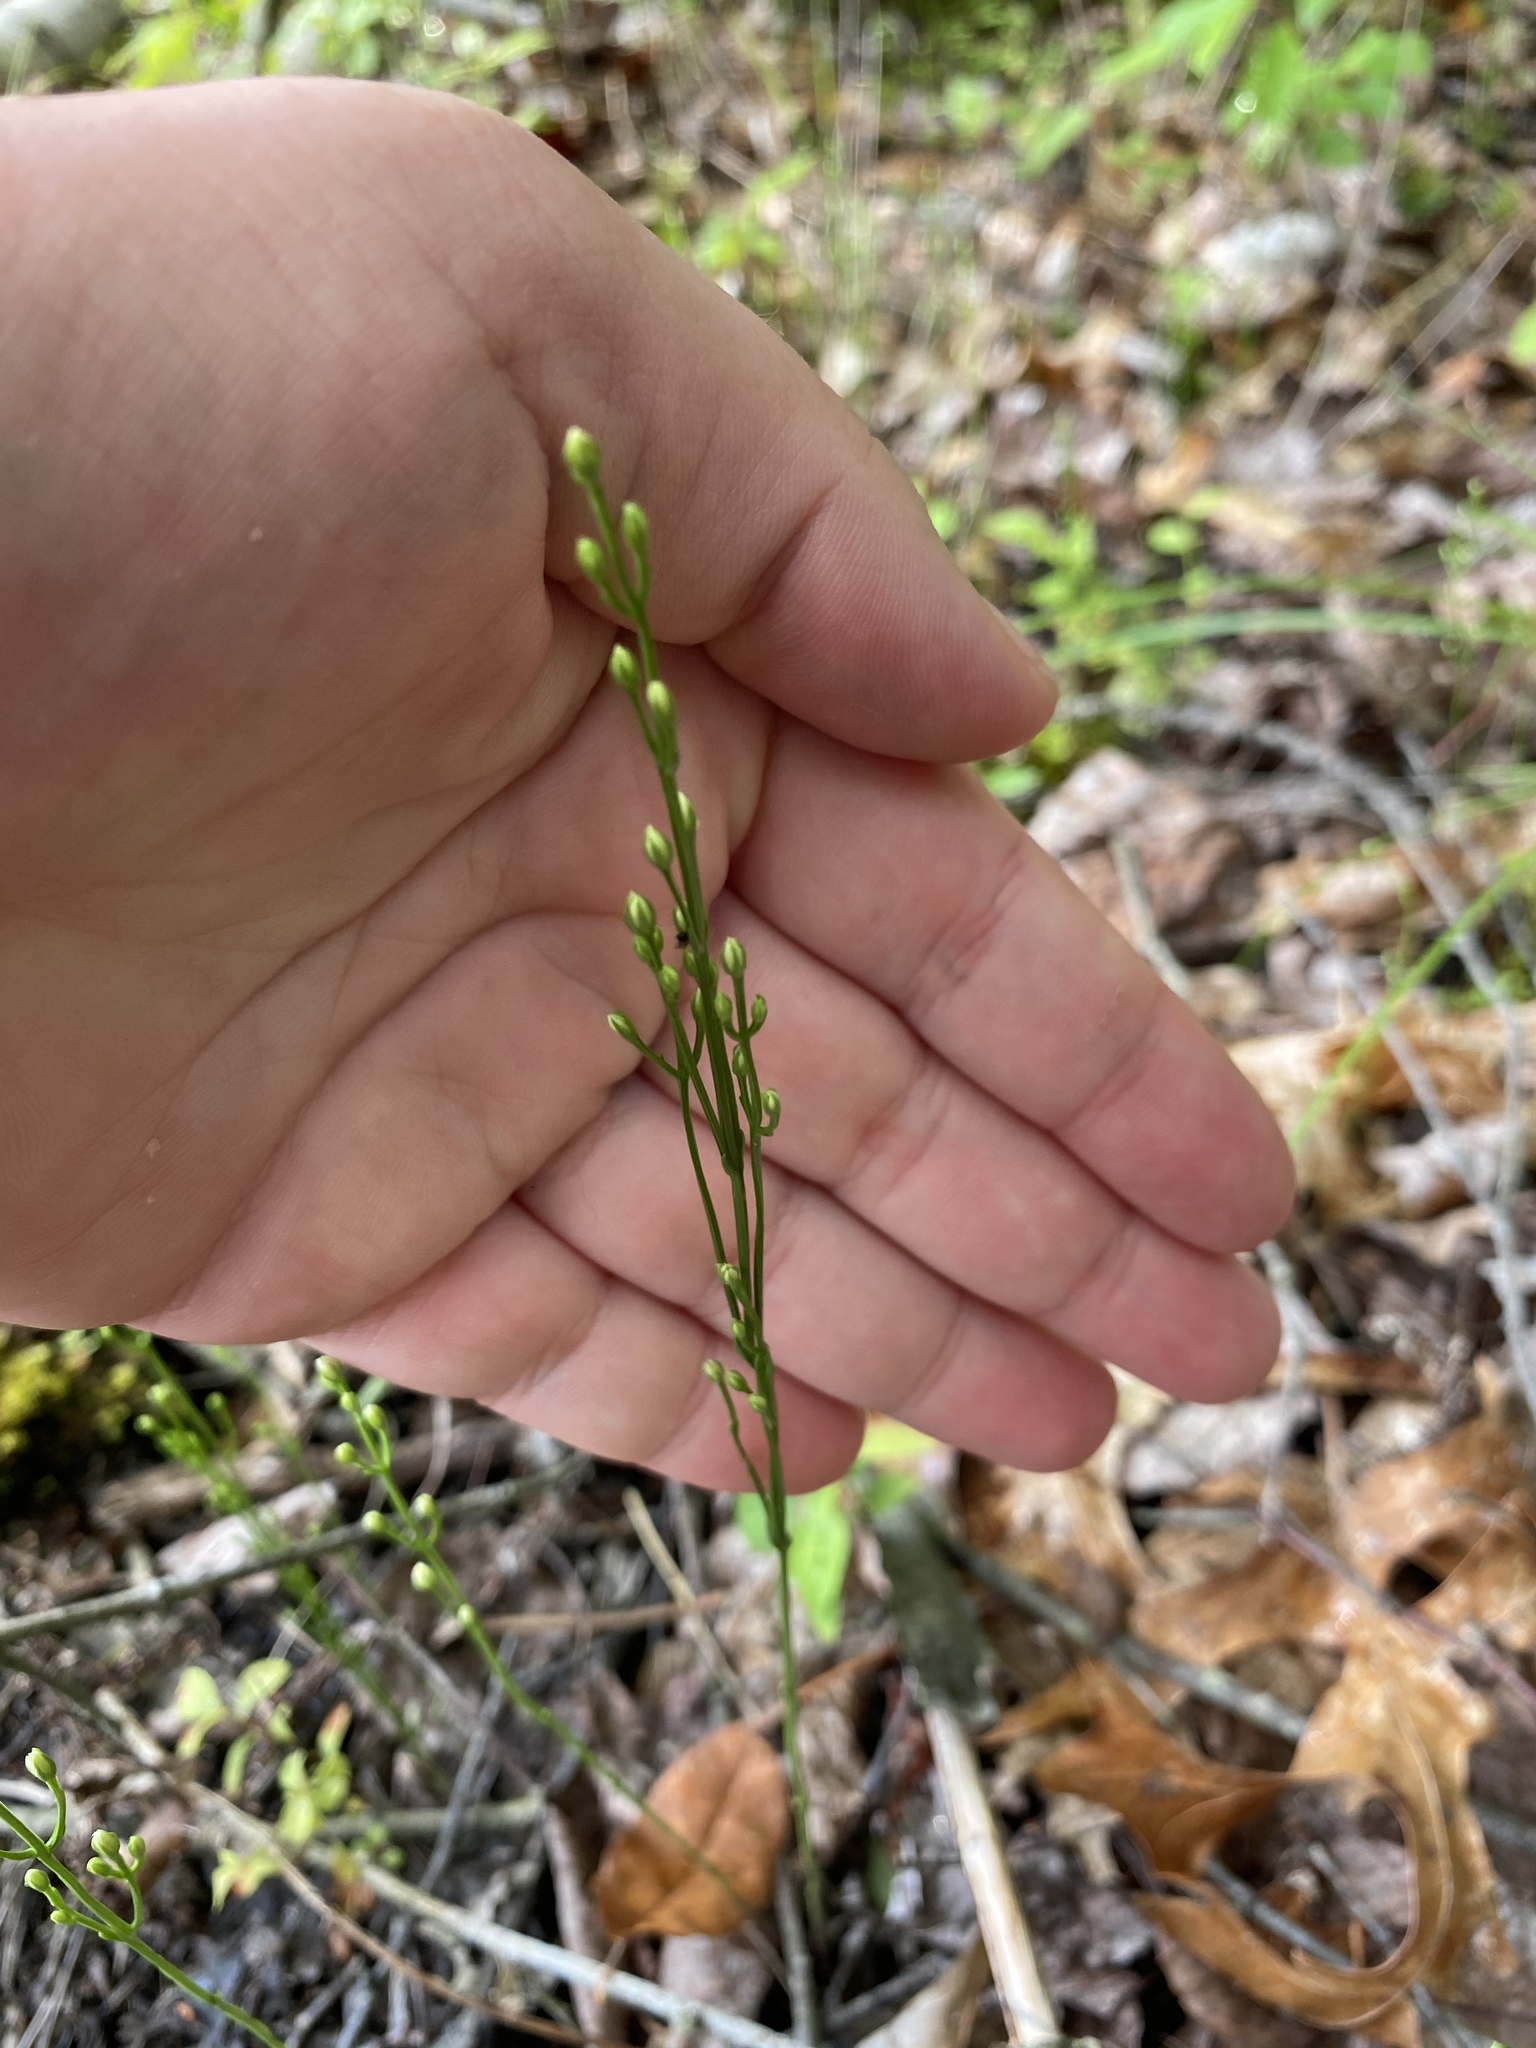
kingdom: Plantae
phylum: Tracheophyta
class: Magnoliopsida
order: Gentianales
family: Gentianaceae
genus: Bartonia
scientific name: Bartonia virginica
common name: Yellow bartonia
